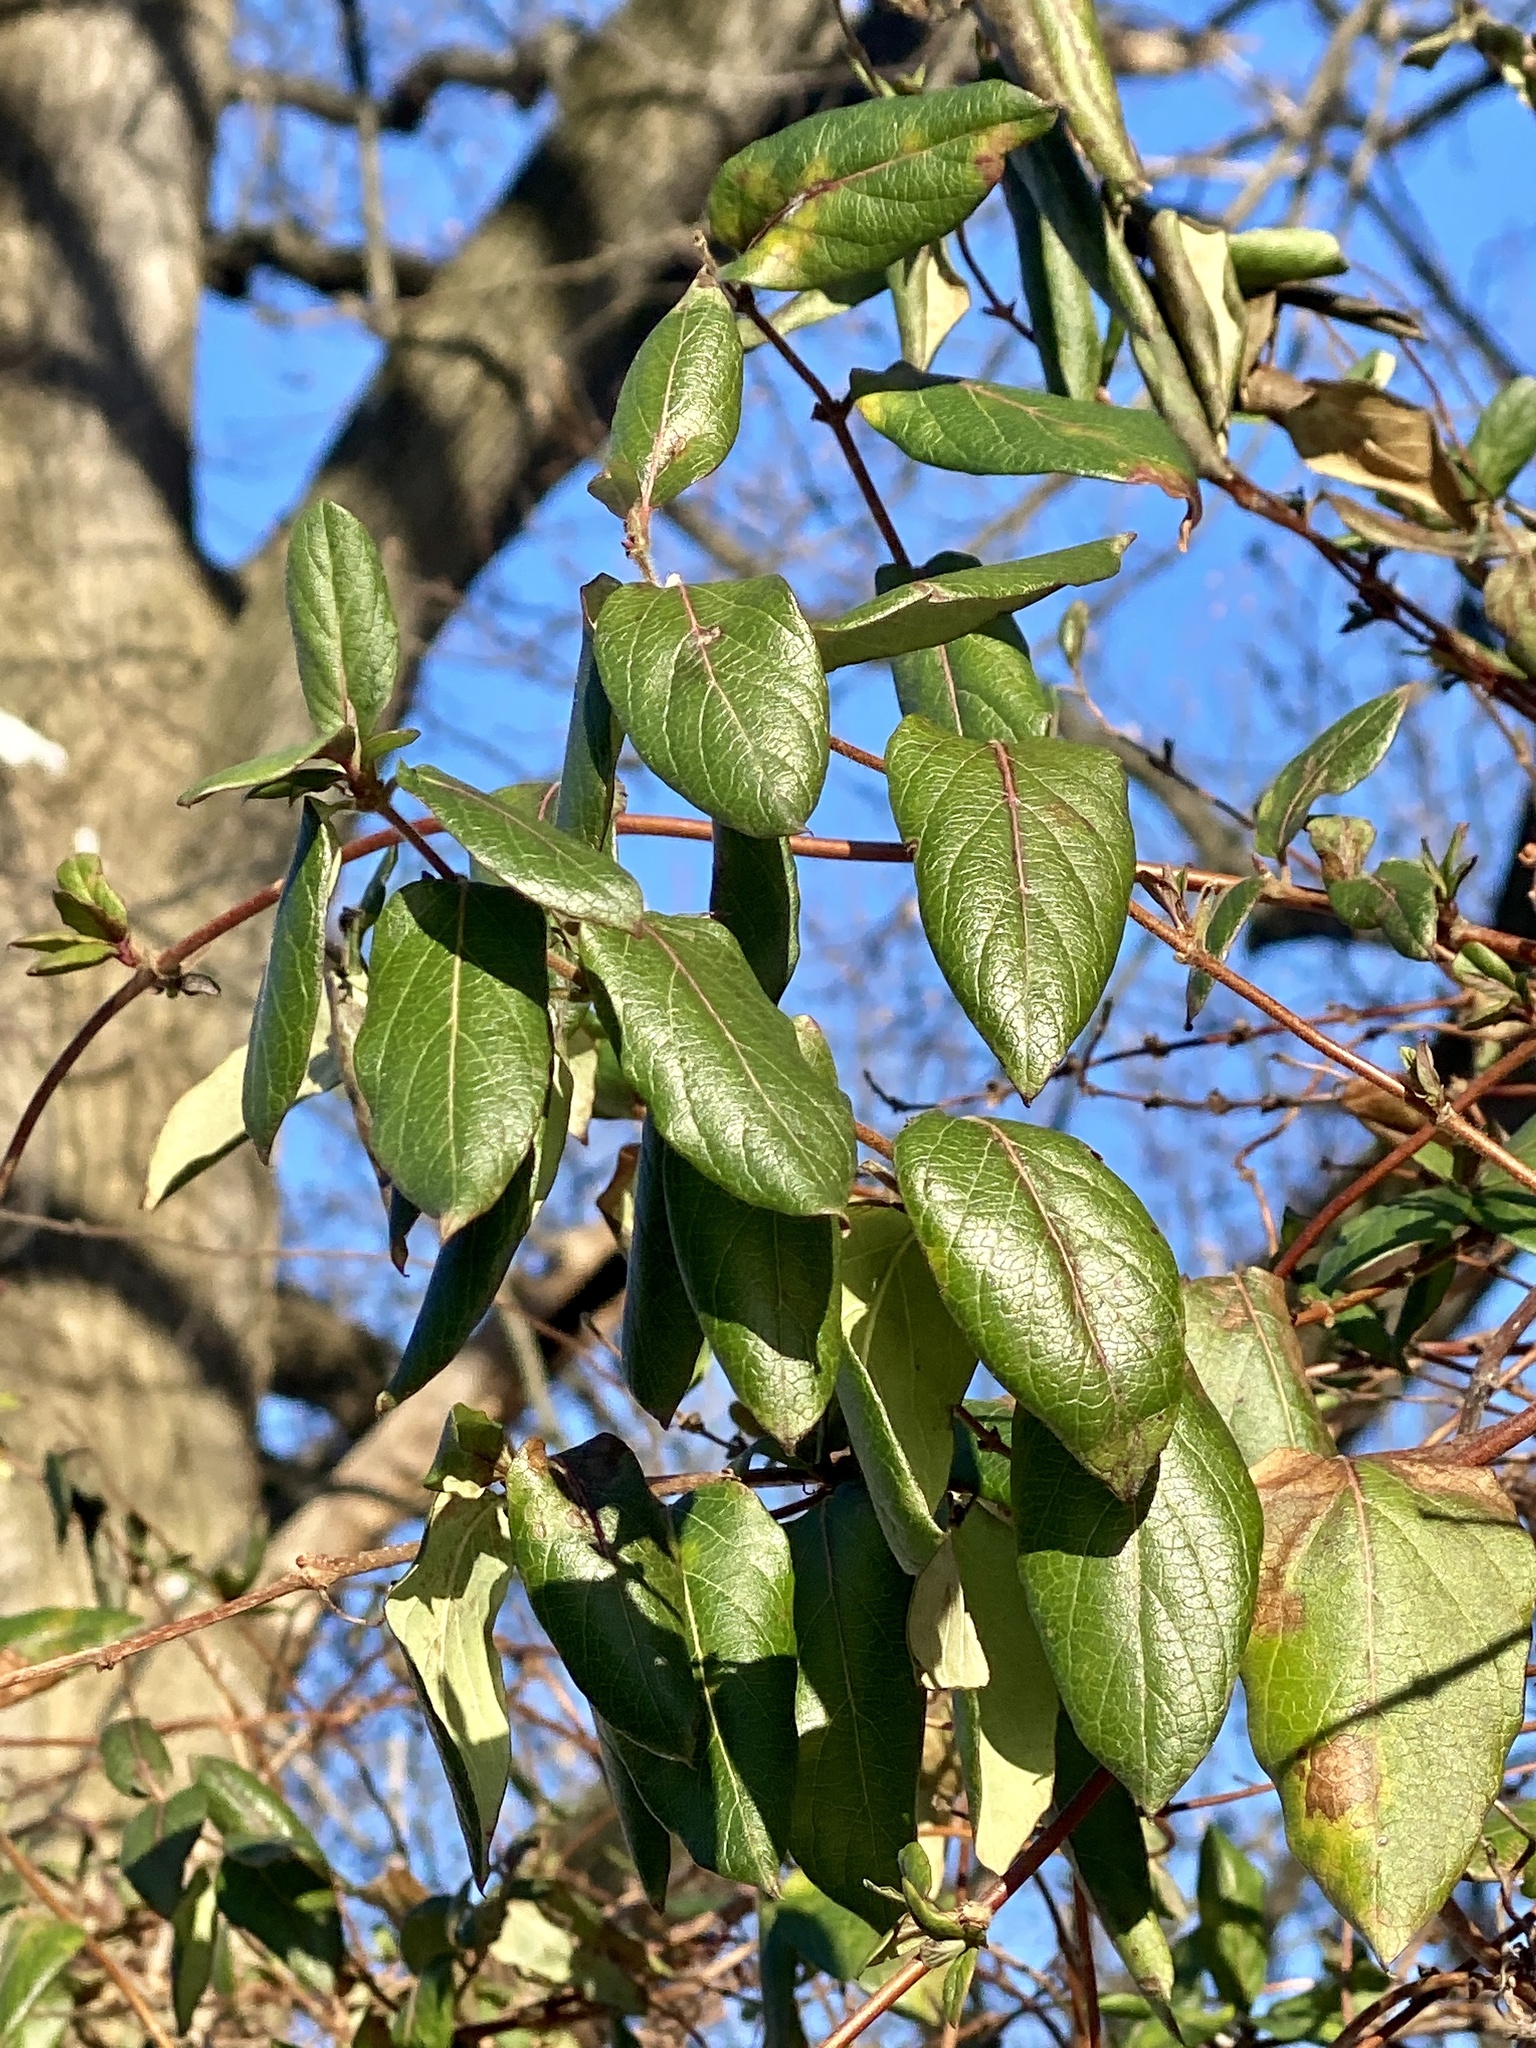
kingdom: Plantae
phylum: Tracheophyta
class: Magnoliopsida
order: Dipsacales
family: Caprifoliaceae
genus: Lonicera
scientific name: Lonicera japonica
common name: Japanese honeysuckle
